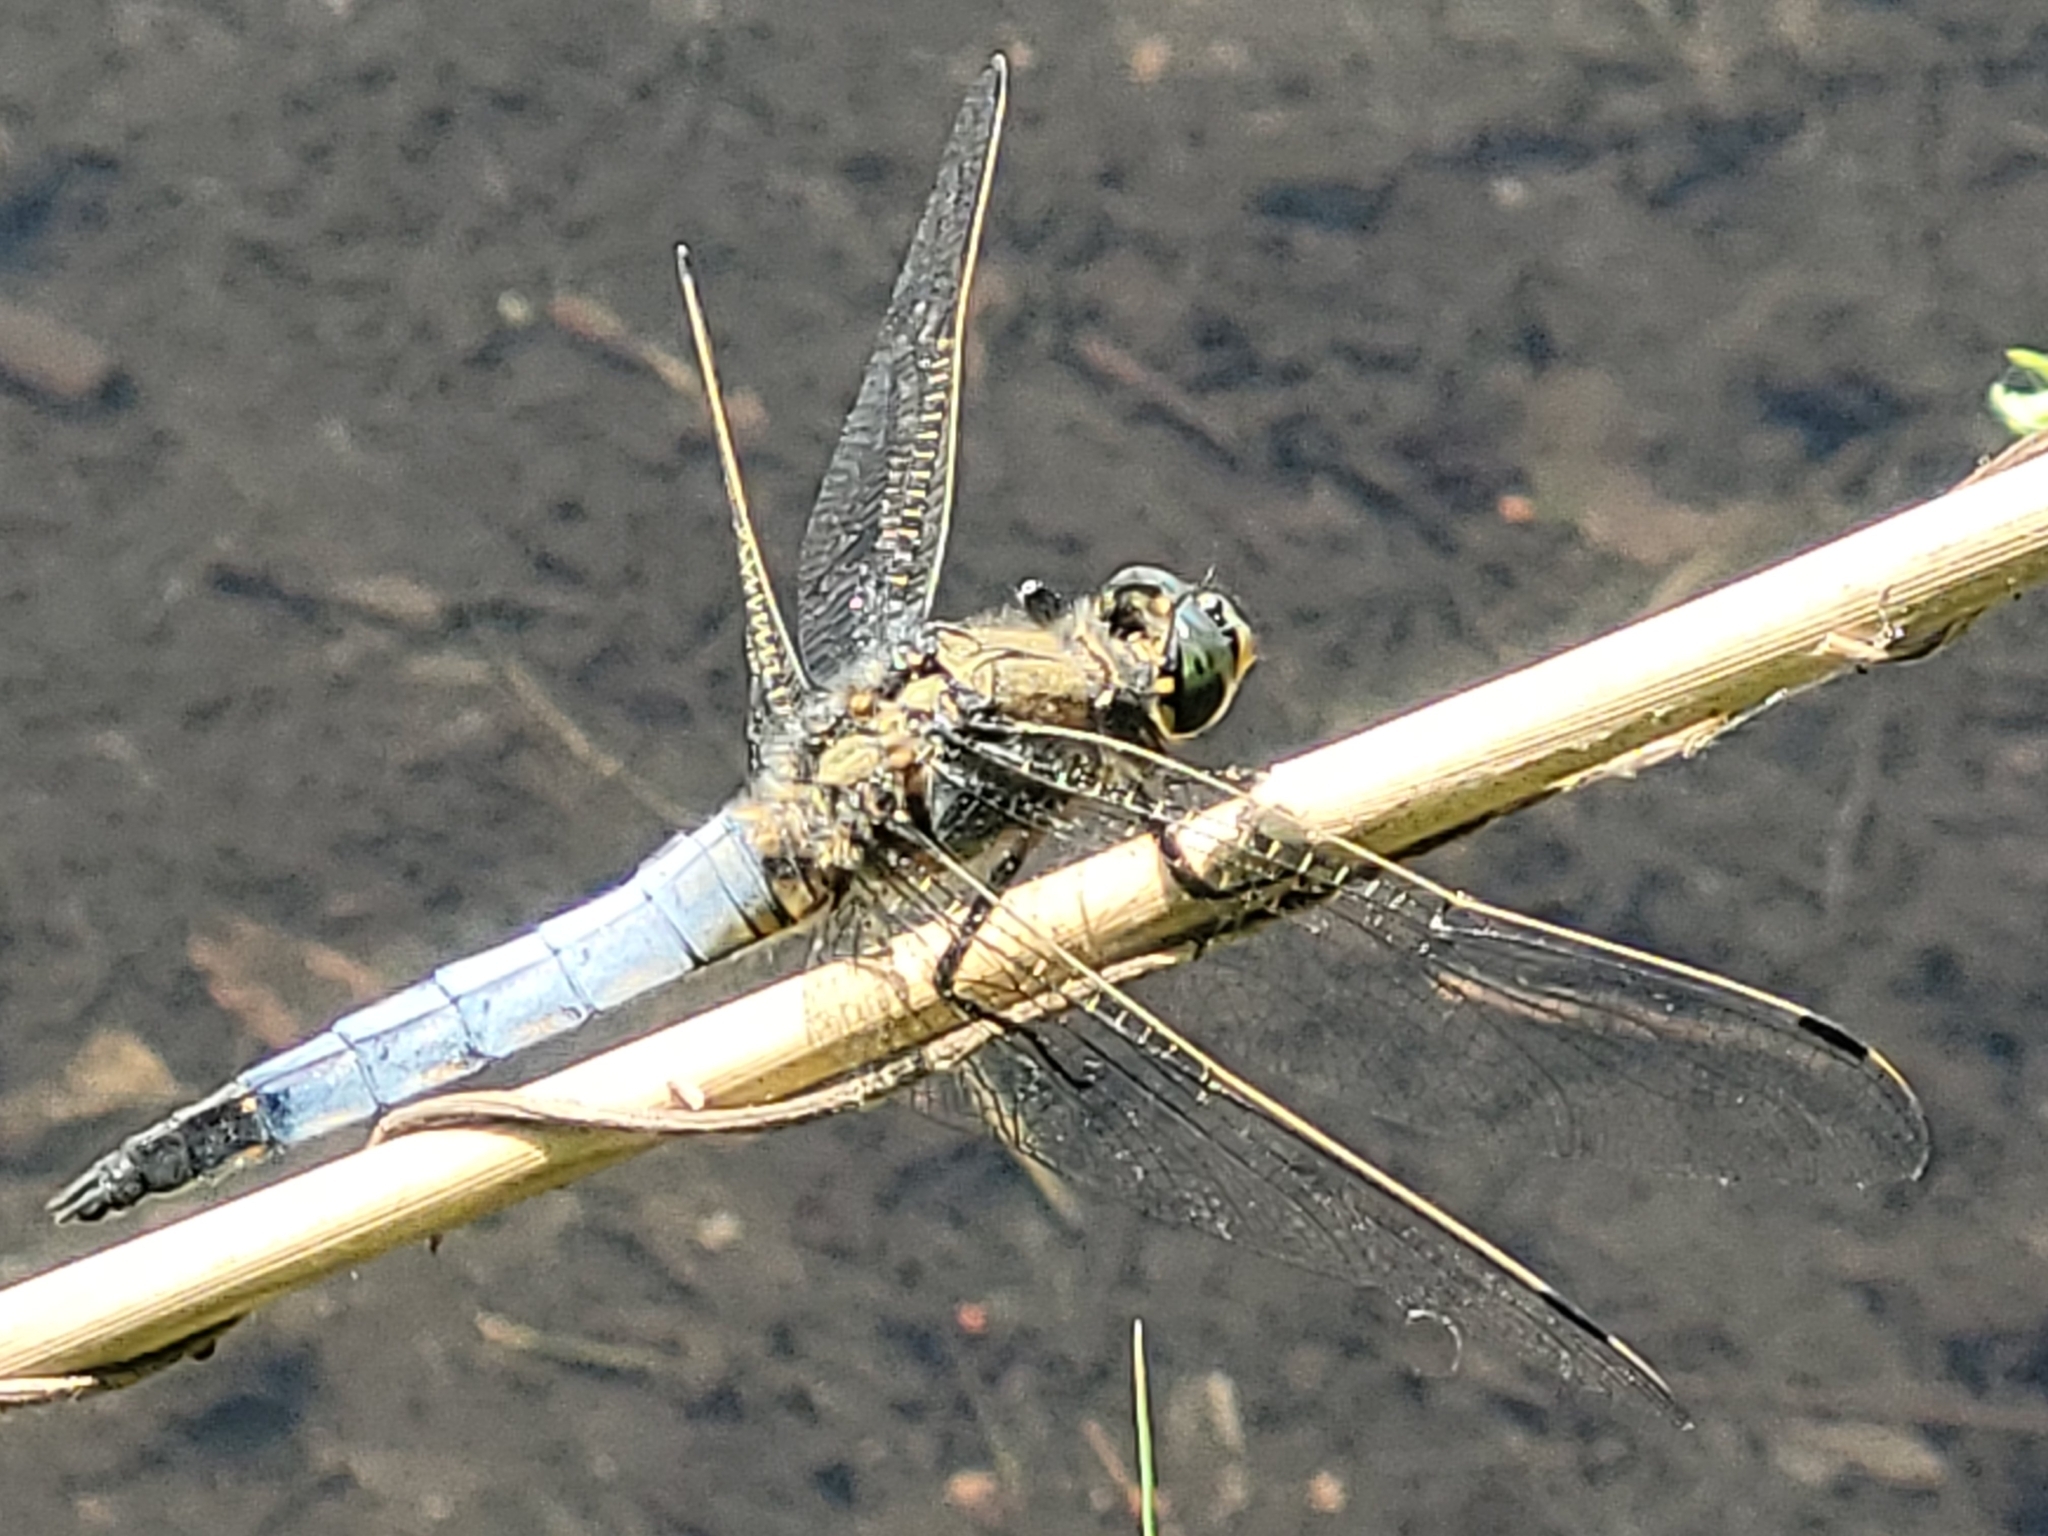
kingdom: Animalia
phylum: Arthropoda
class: Insecta
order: Odonata
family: Libellulidae
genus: Orthetrum
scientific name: Orthetrum cancellatum
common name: Black-tailed skimmer
